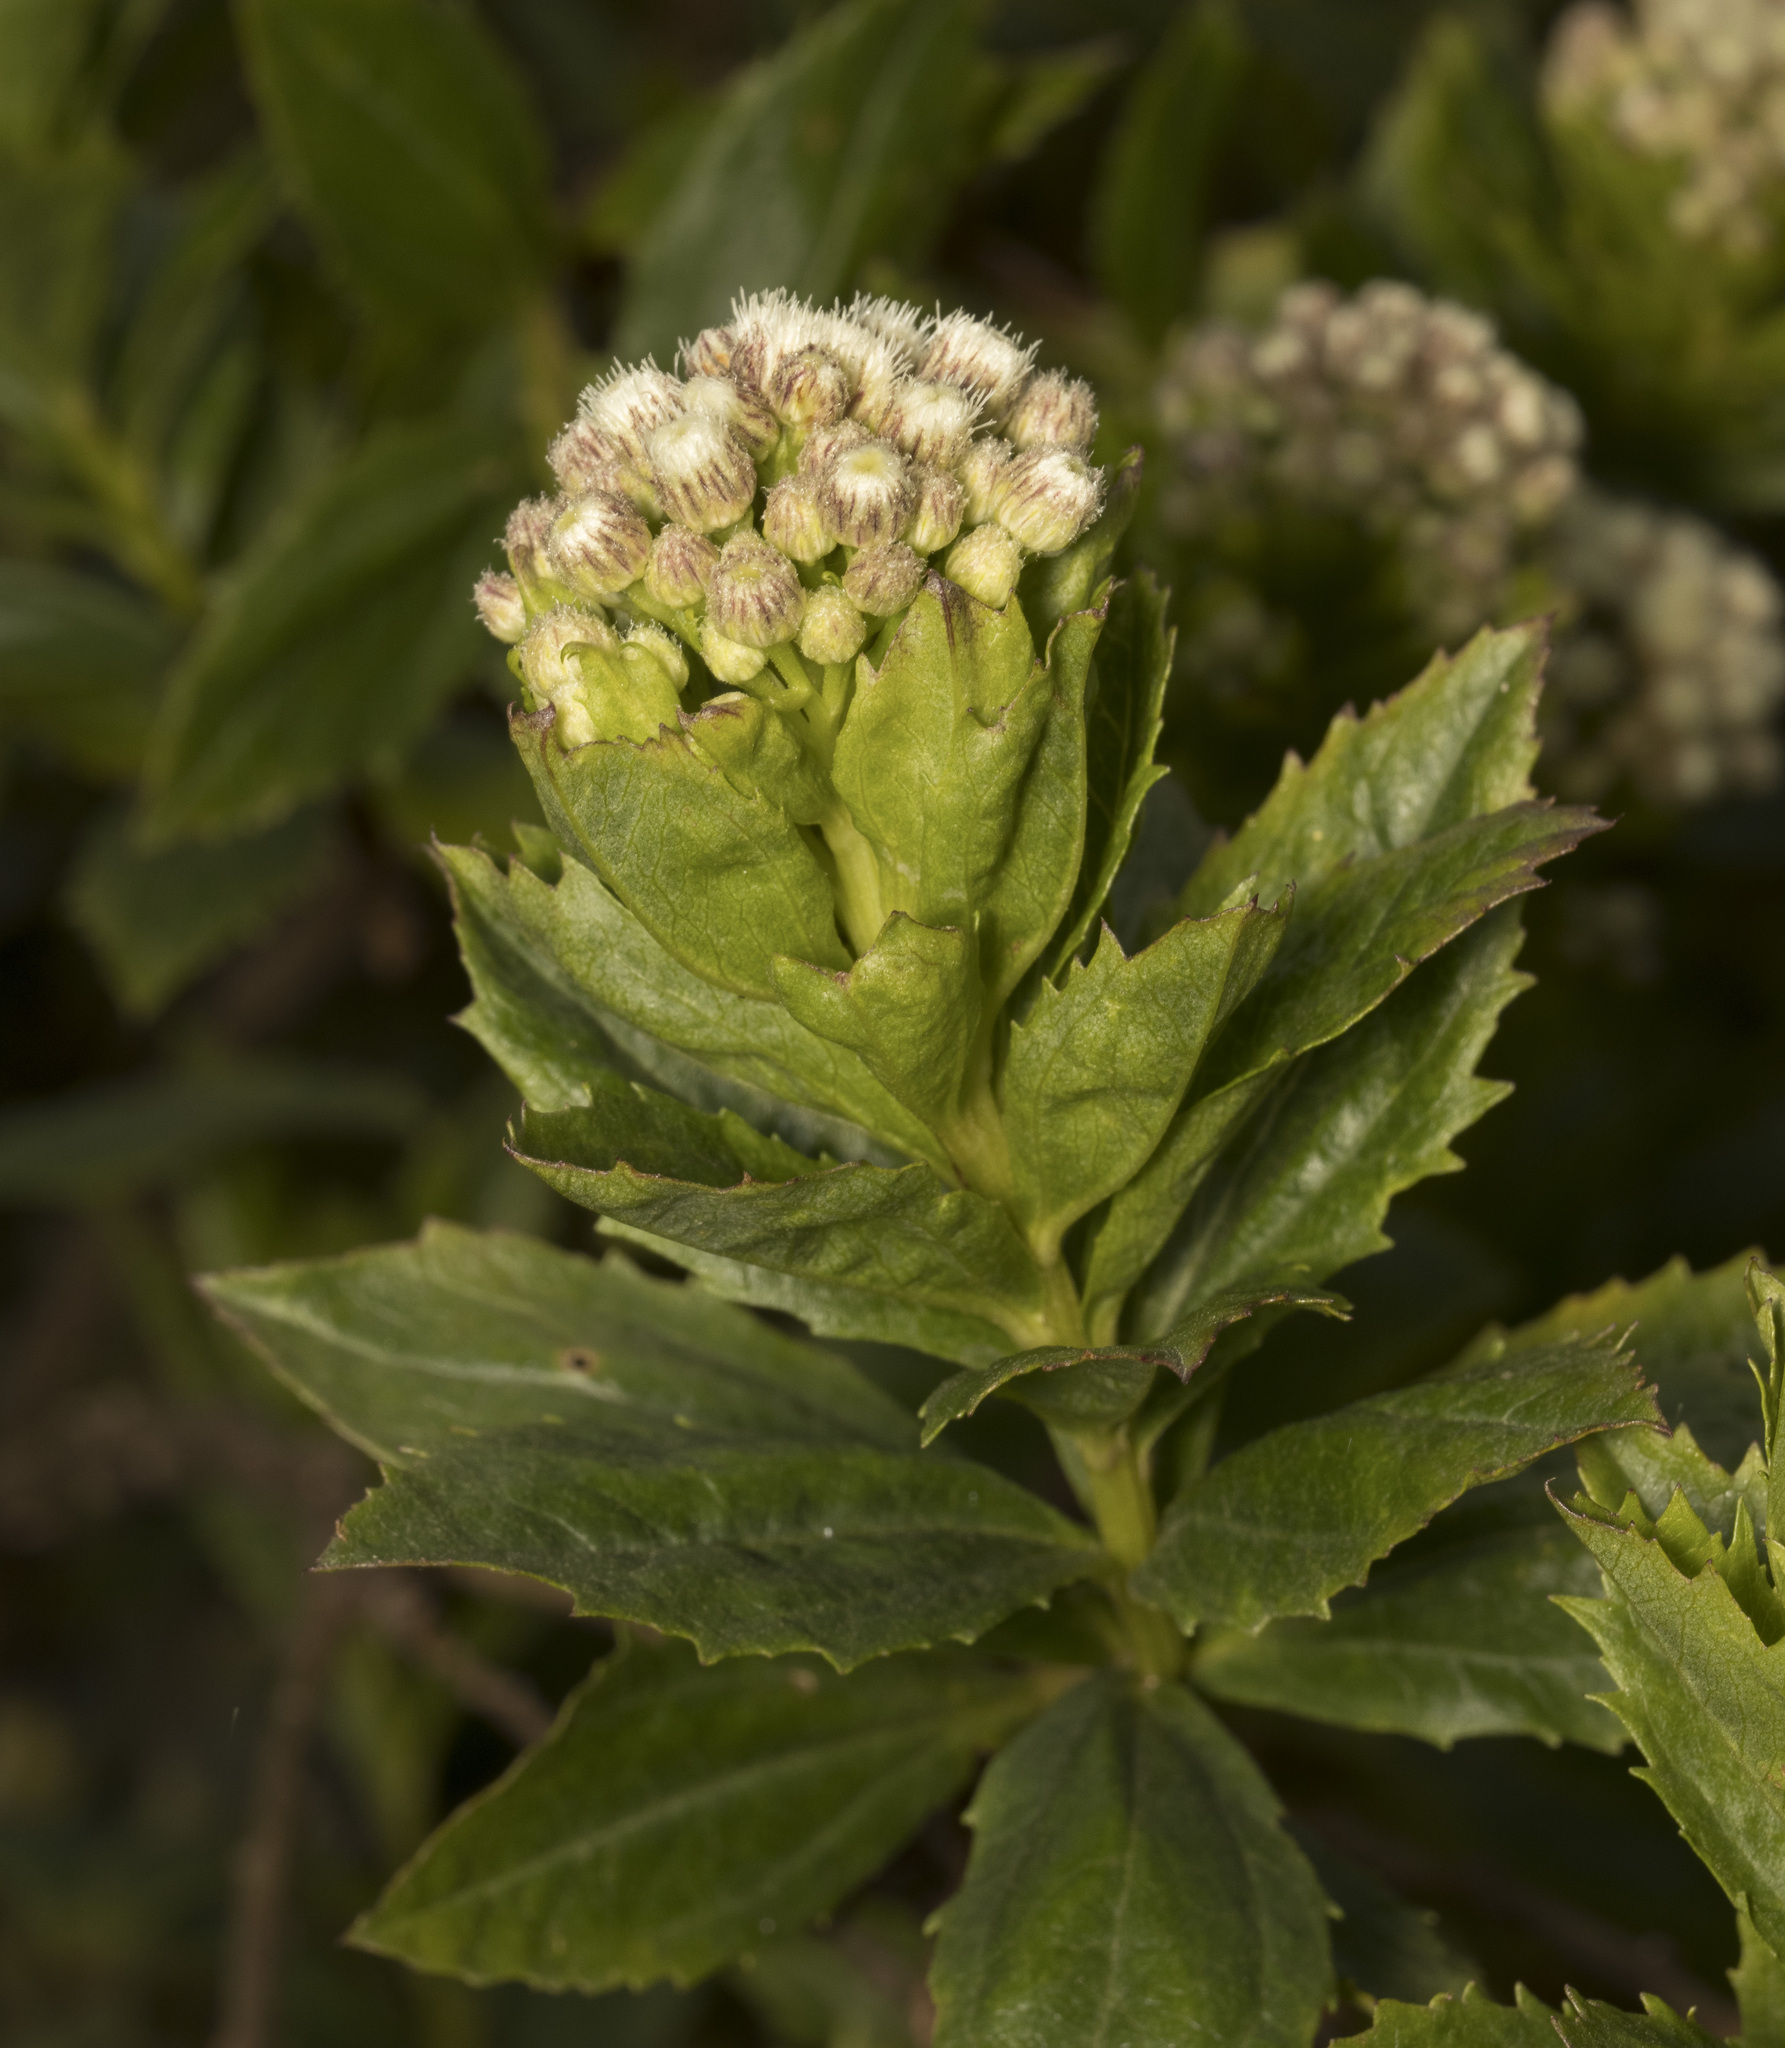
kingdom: Plantae
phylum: Tracheophyta
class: Magnoliopsida
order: Asterales
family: Asteraceae
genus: Baccharis
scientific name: Baccharis sphaerocephala
